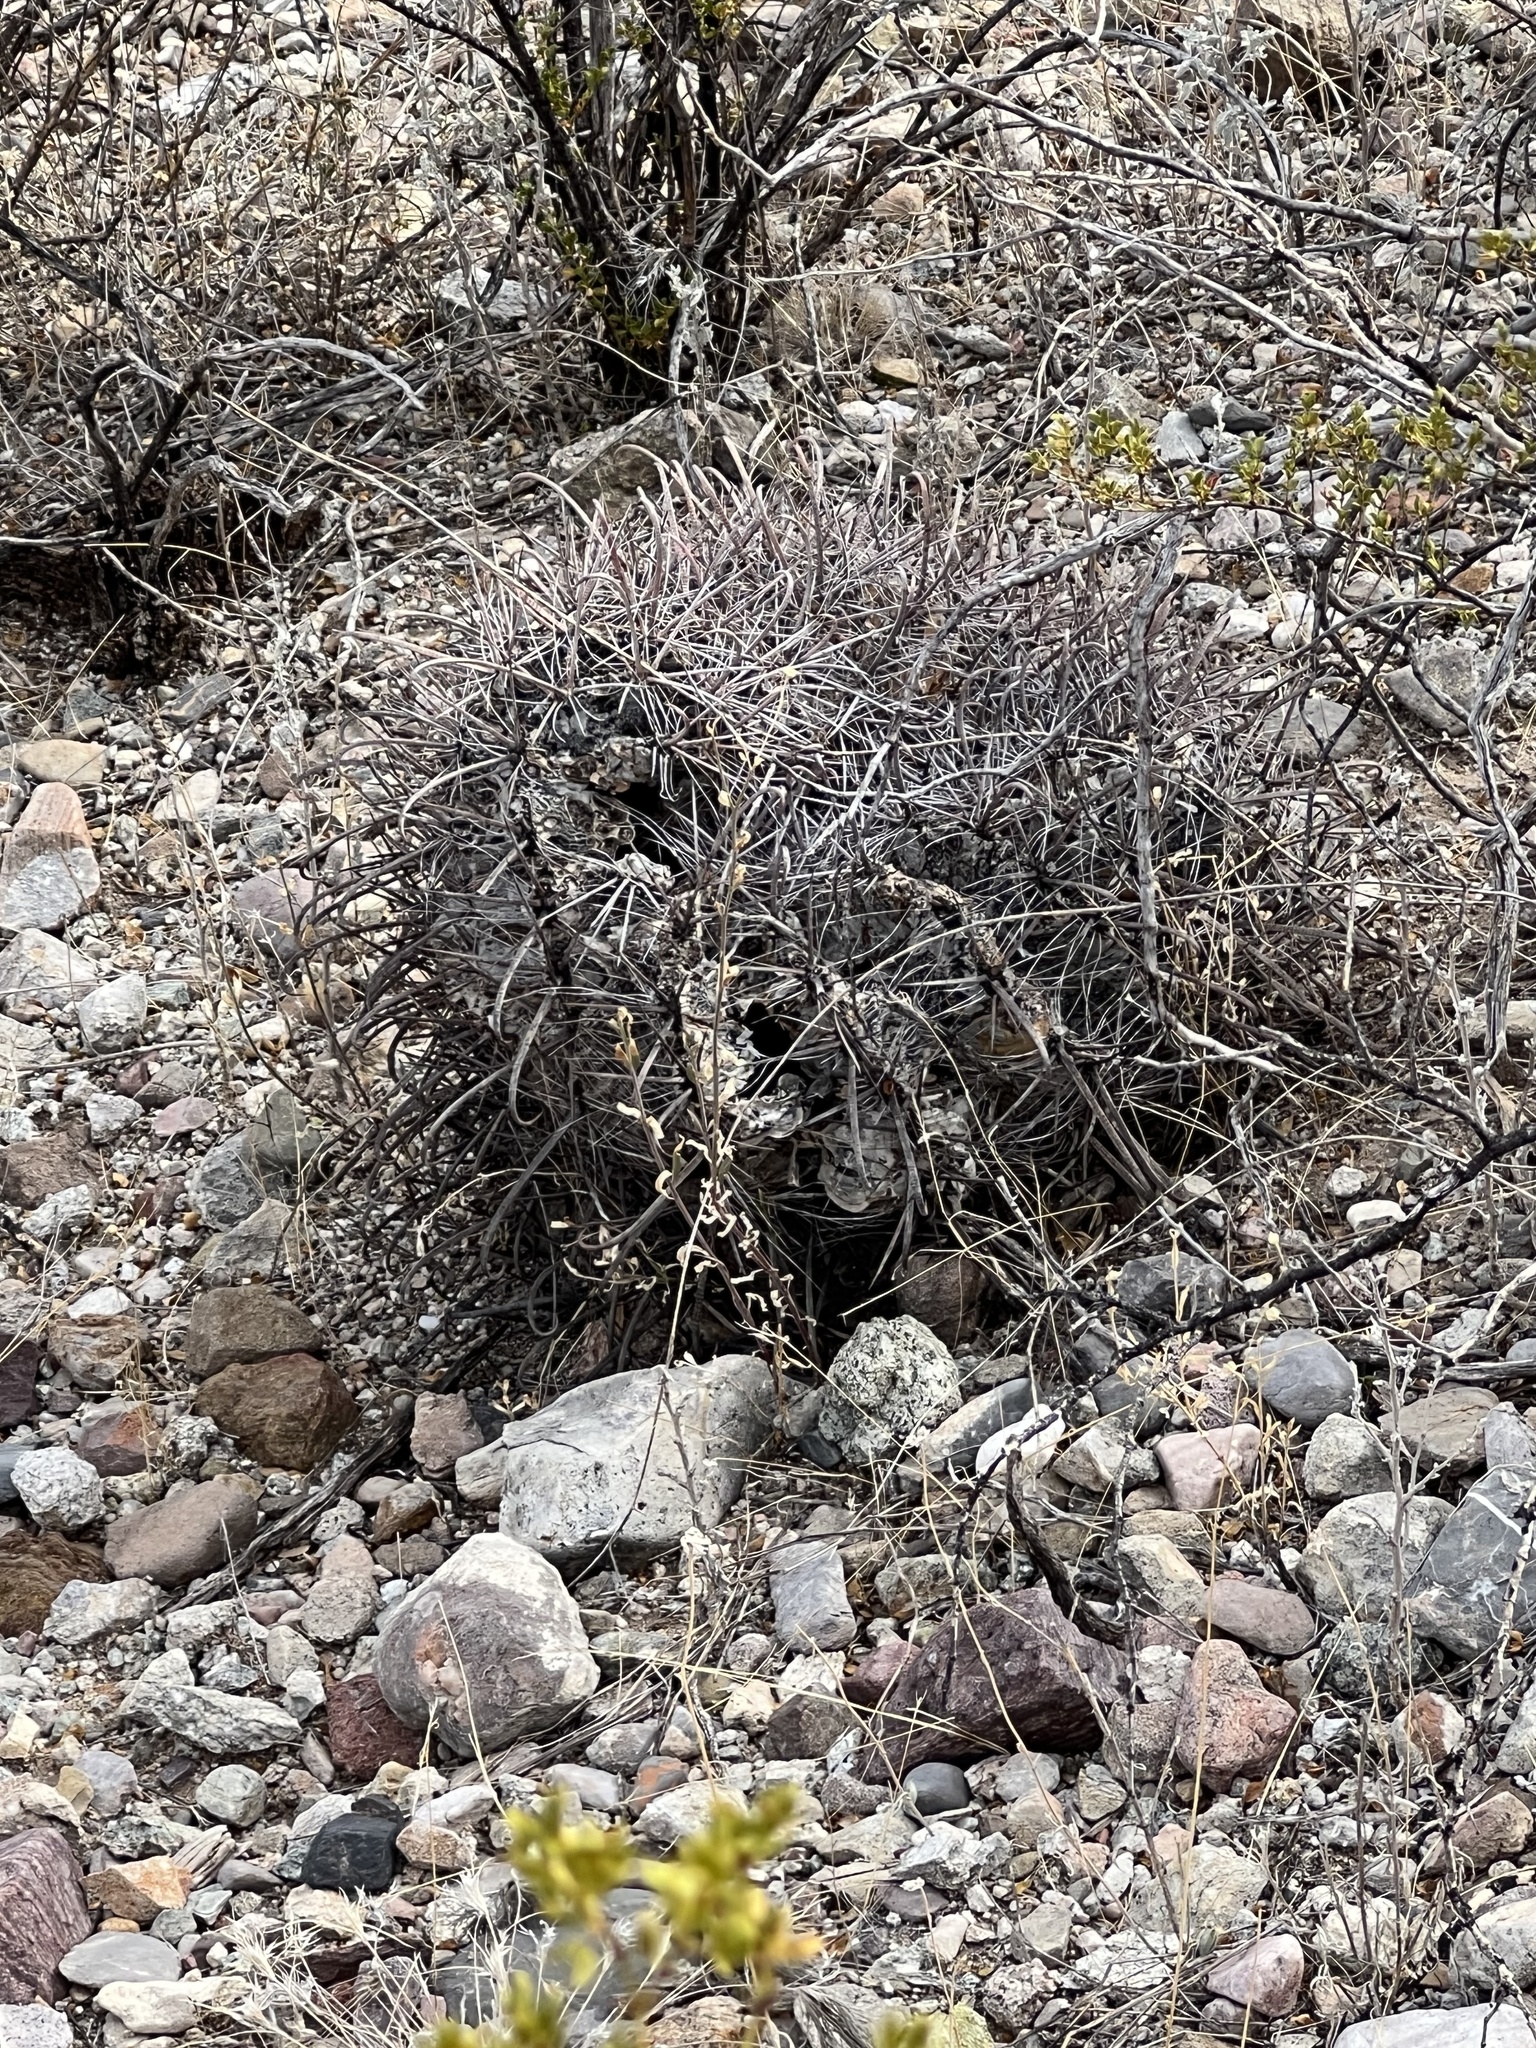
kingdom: Plantae
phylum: Tracheophyta
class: Magnoliopsida
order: Caryophyllales
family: Cactaceae
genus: Ferocactus
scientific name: Ferocactus wislizeni
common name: Candy barrel cactus
